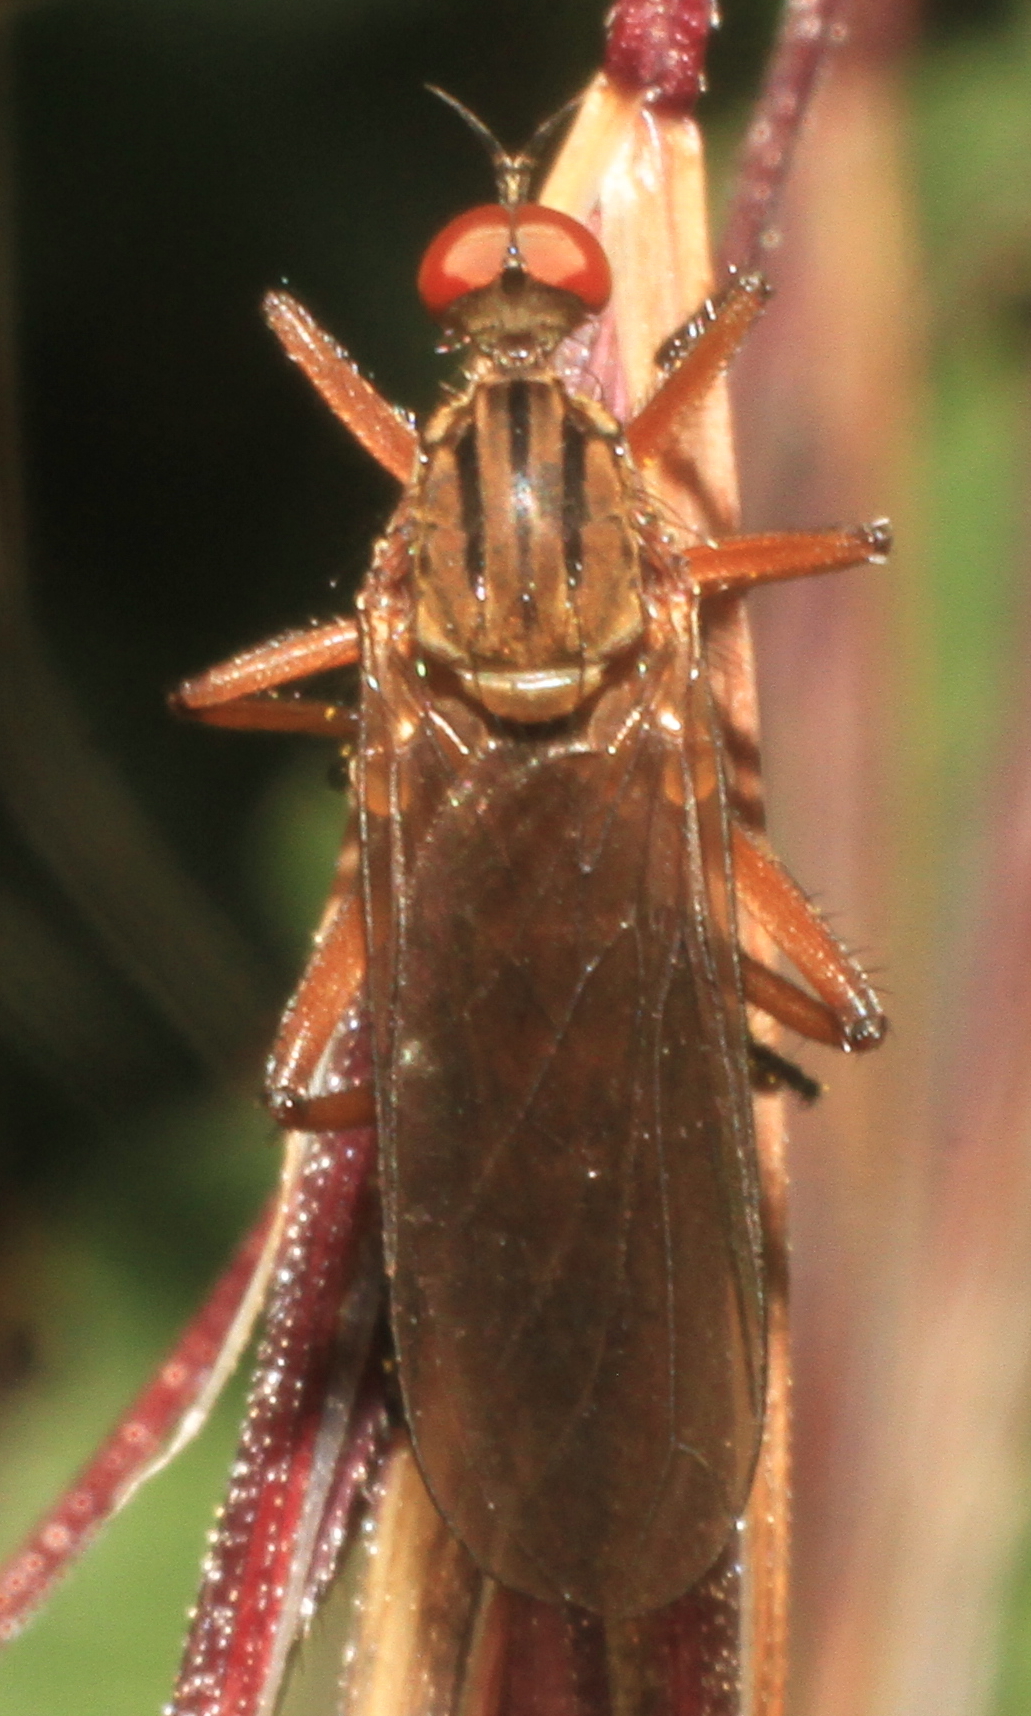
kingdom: Animalia
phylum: Arthropoda
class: Insecta
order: Diptera
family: Empididae
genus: Empis
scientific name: Empis livida
